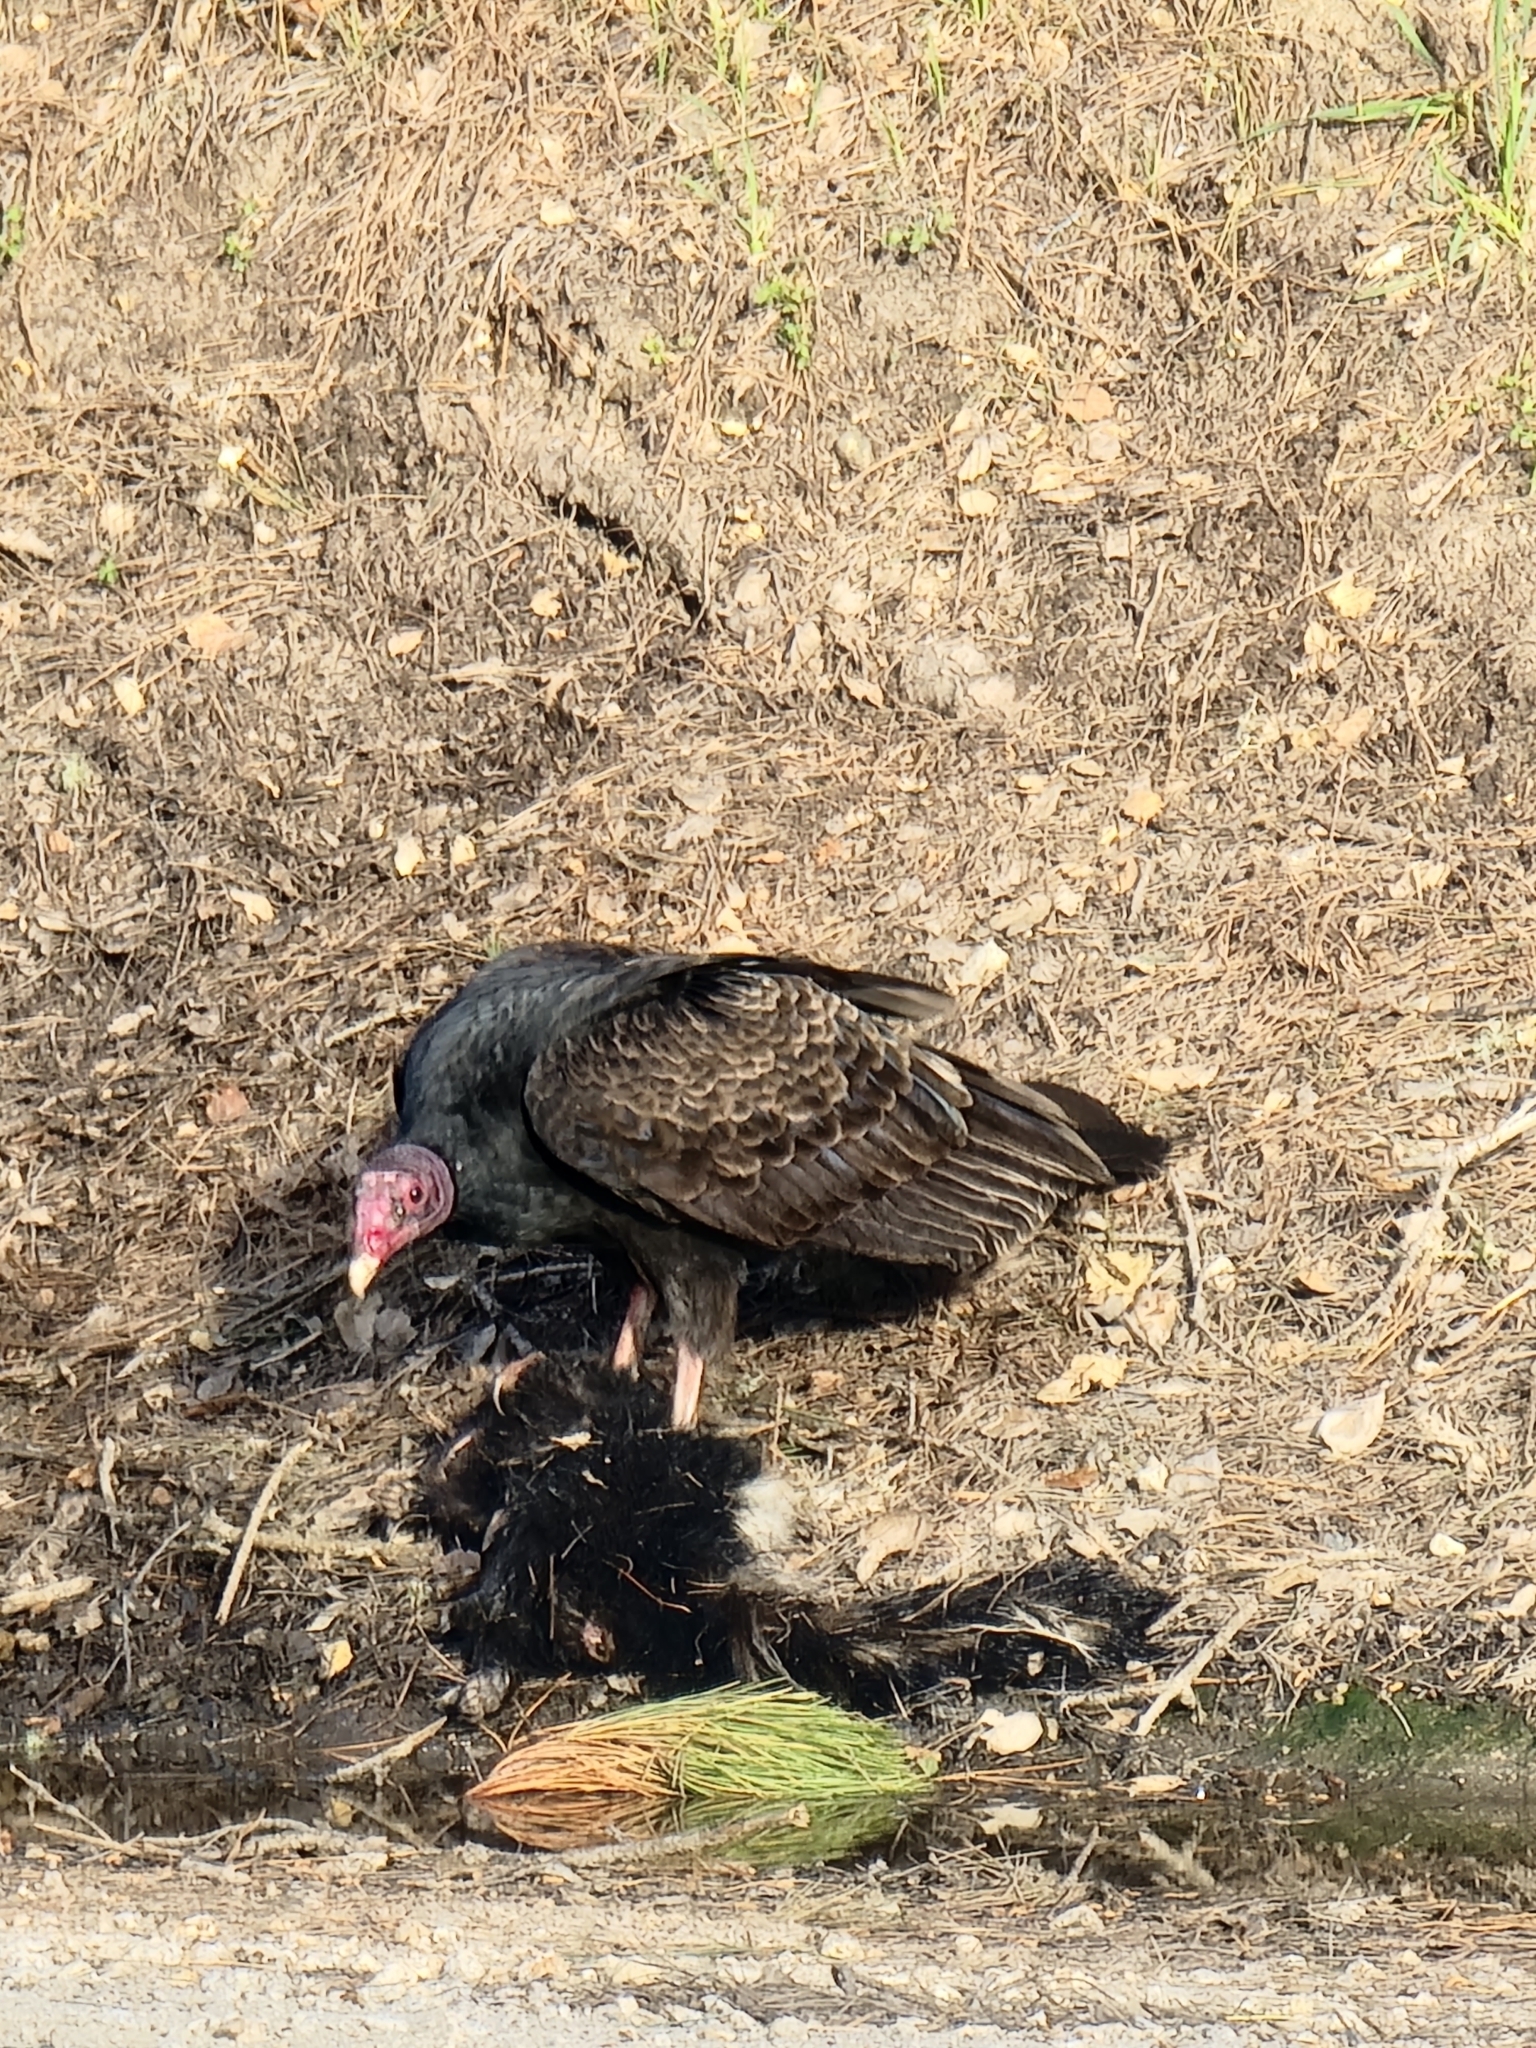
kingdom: Animalia
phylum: Chordata
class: Mammalia
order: Carnivora
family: Mephitidae
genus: Mephitis
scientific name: Mephitis mephitis
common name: Striped skunk
